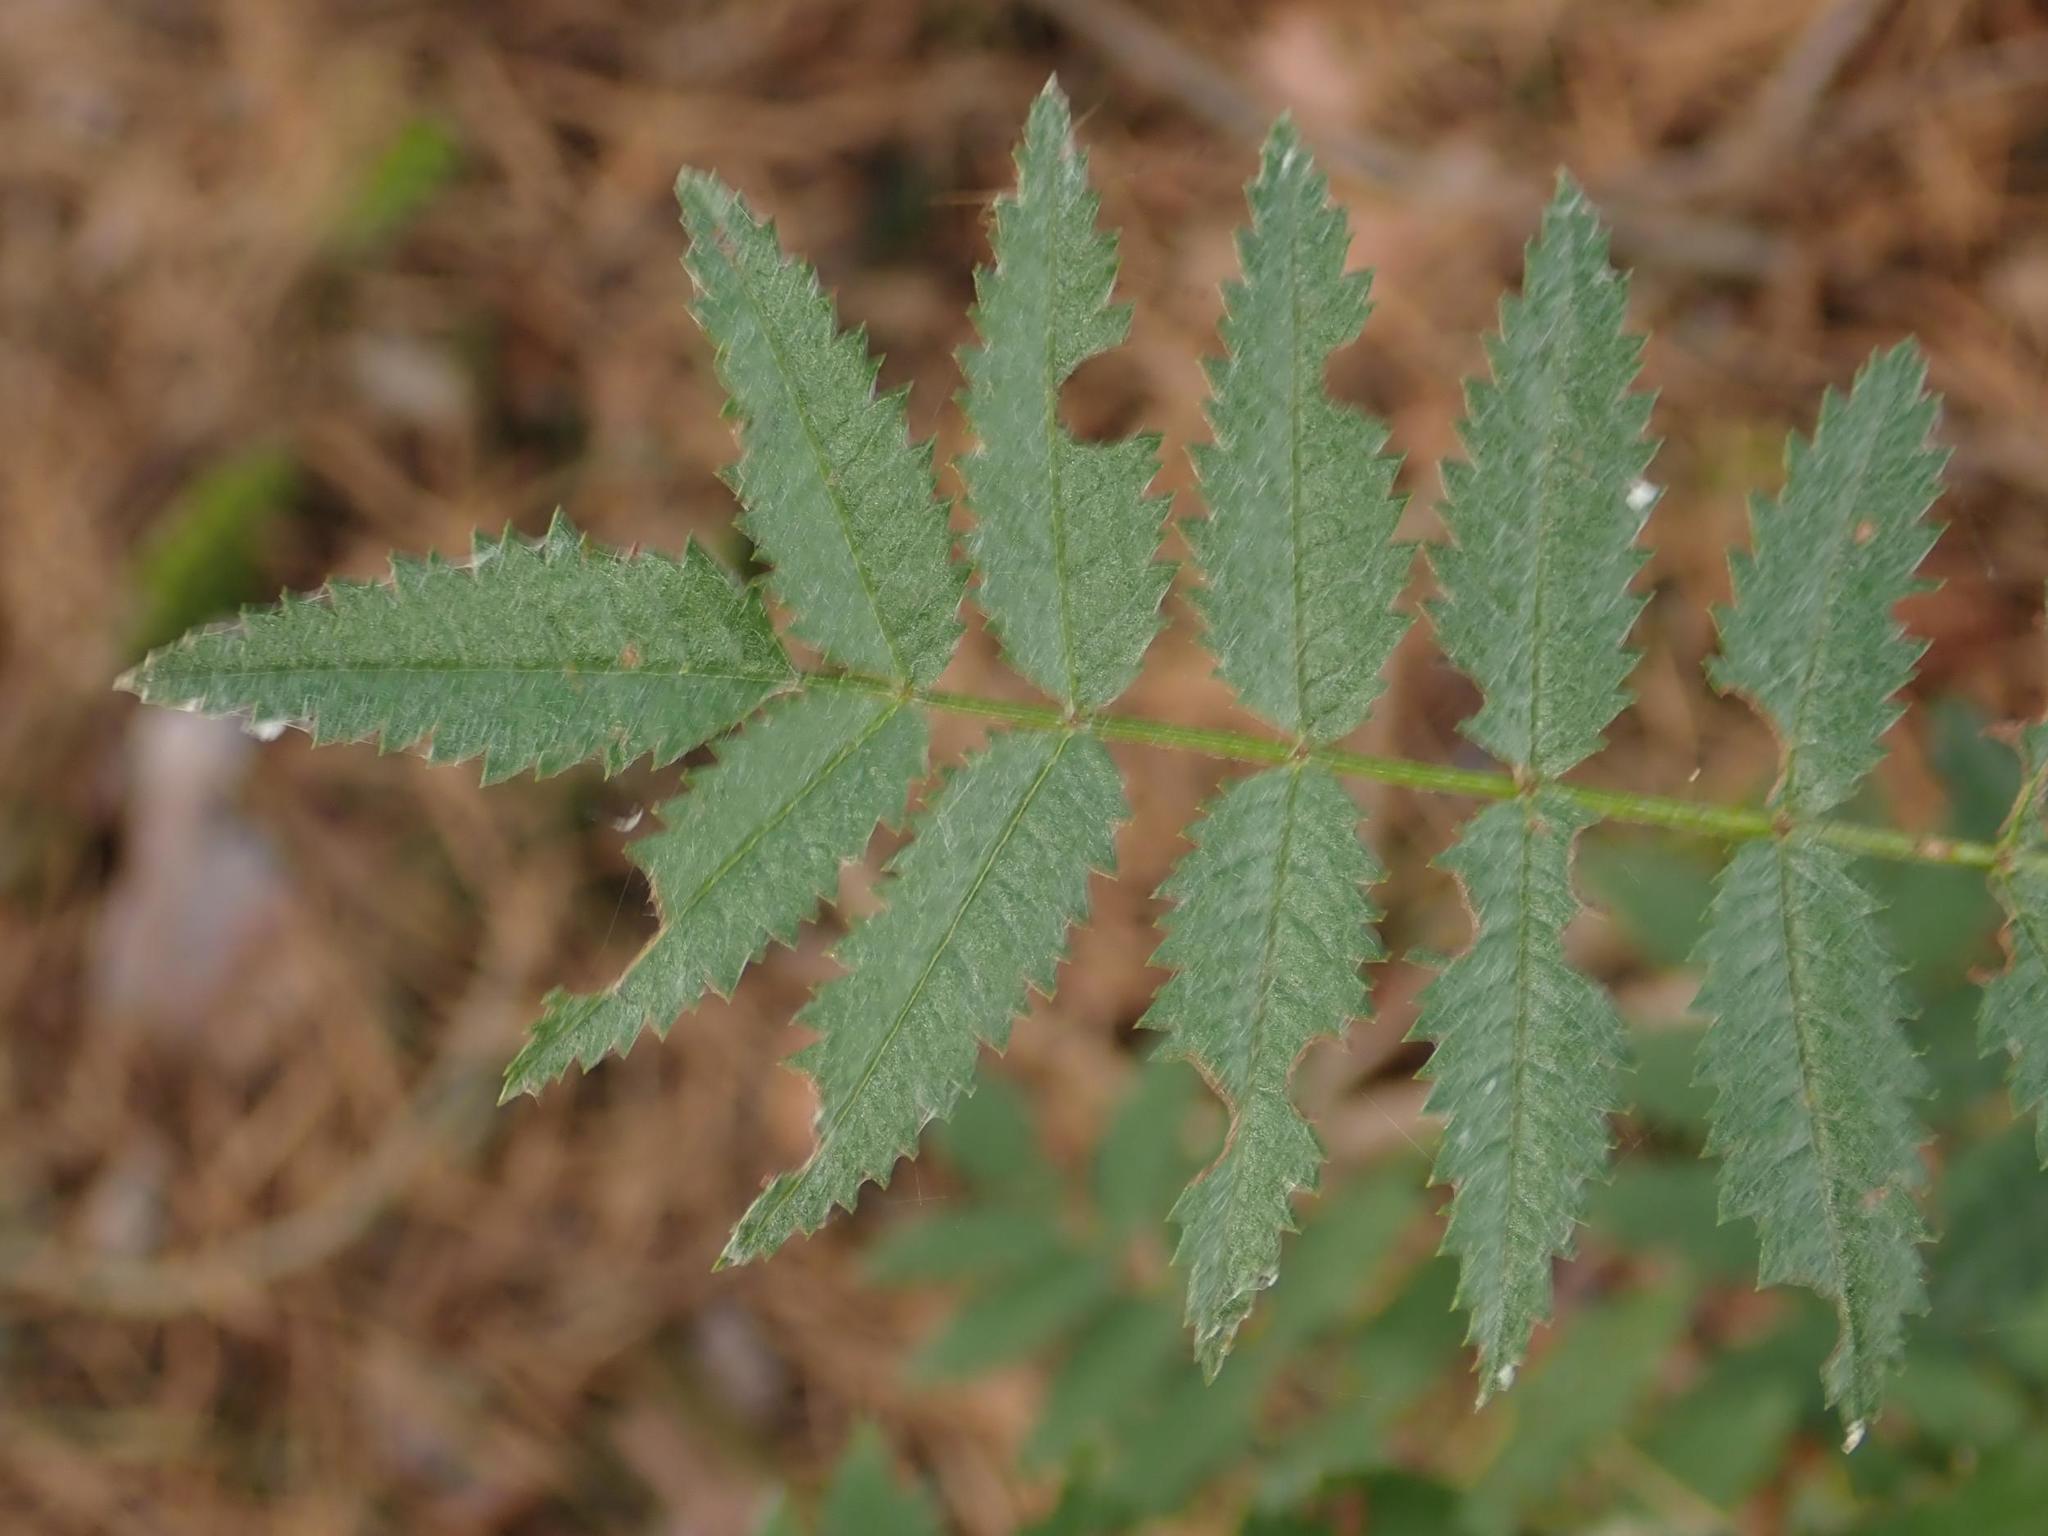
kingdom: Plantae
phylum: Tracheophyta
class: Magnoliopsida
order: Rosales
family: Rosaceae
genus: Sorbus
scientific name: Sorbus aucuparia
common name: Rowan
